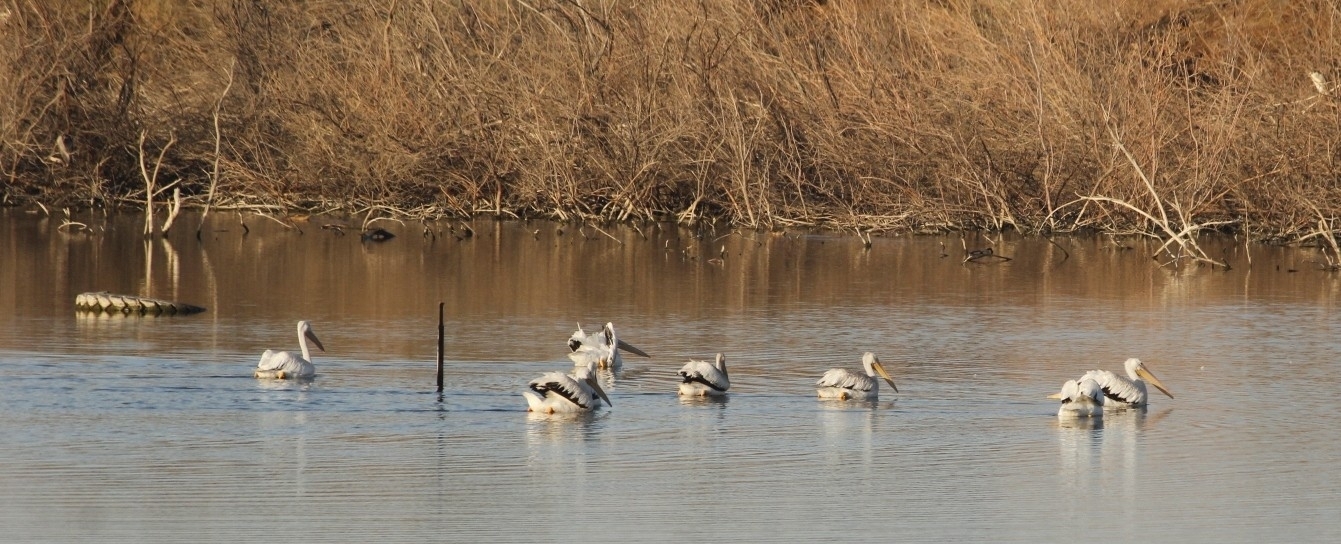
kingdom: Animalia
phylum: Chordata
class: Aves
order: Pelecaniformes
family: Pelecanidae
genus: Pelecanus
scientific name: Pelecanus erythrorhynchos
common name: American white pelican
